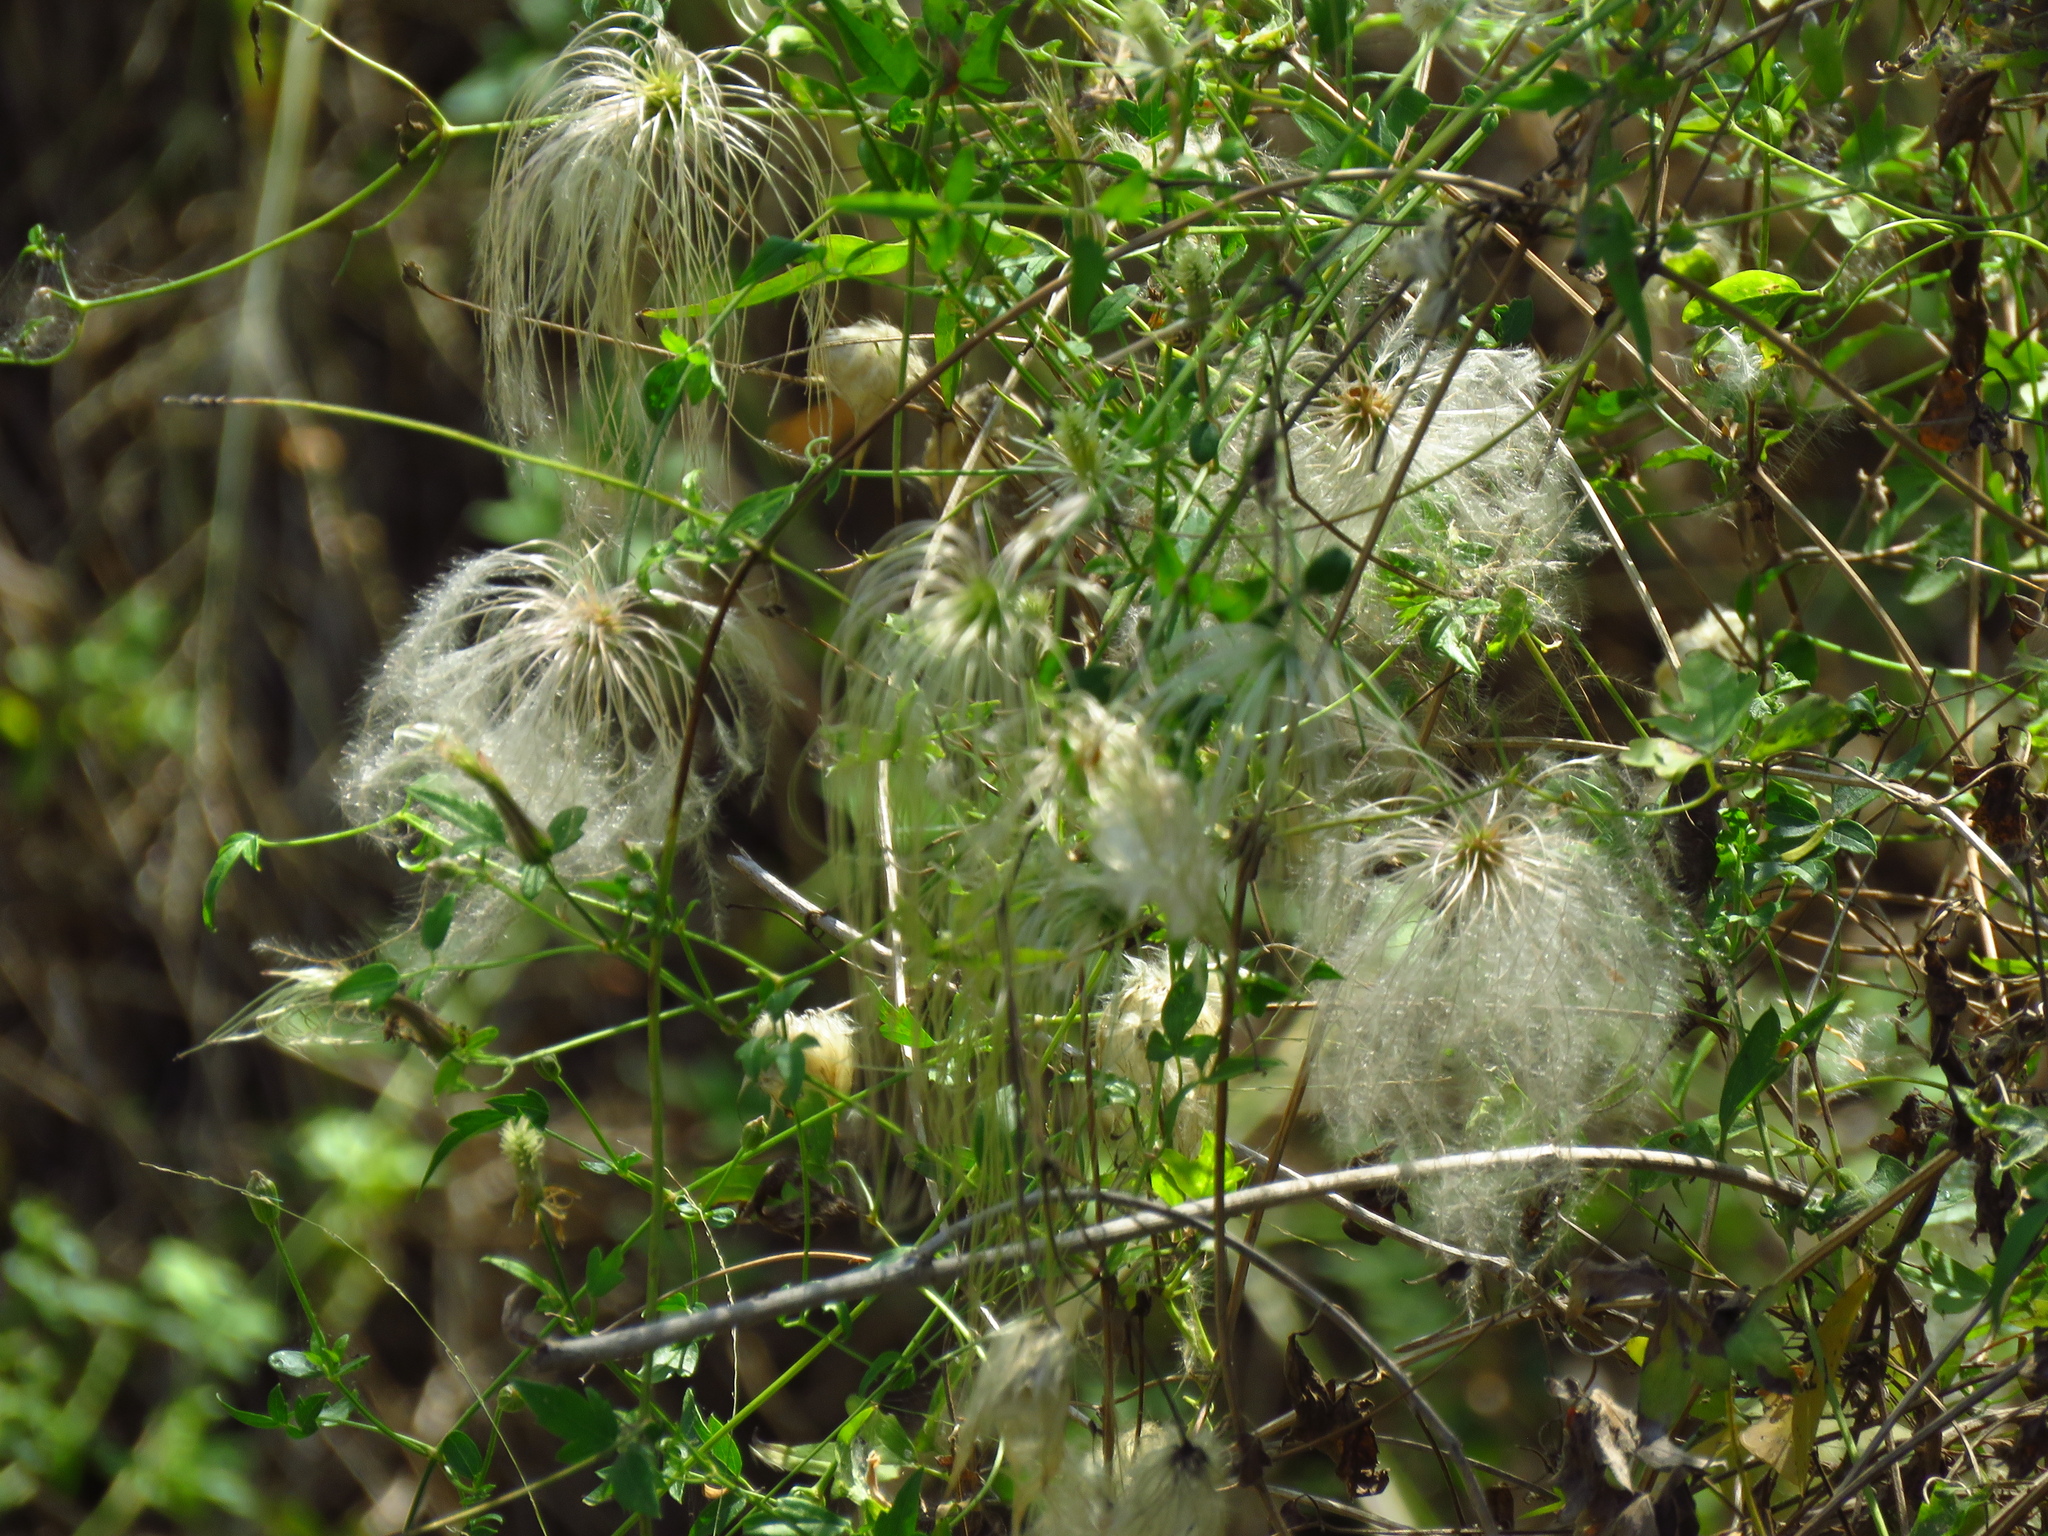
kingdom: Plantae
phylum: Tracheophyta
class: Magnoliopsida
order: Ranunculales
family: Ranunculaceae
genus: Clematis
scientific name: Clematis drummondii
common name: Texas virgin's bower
